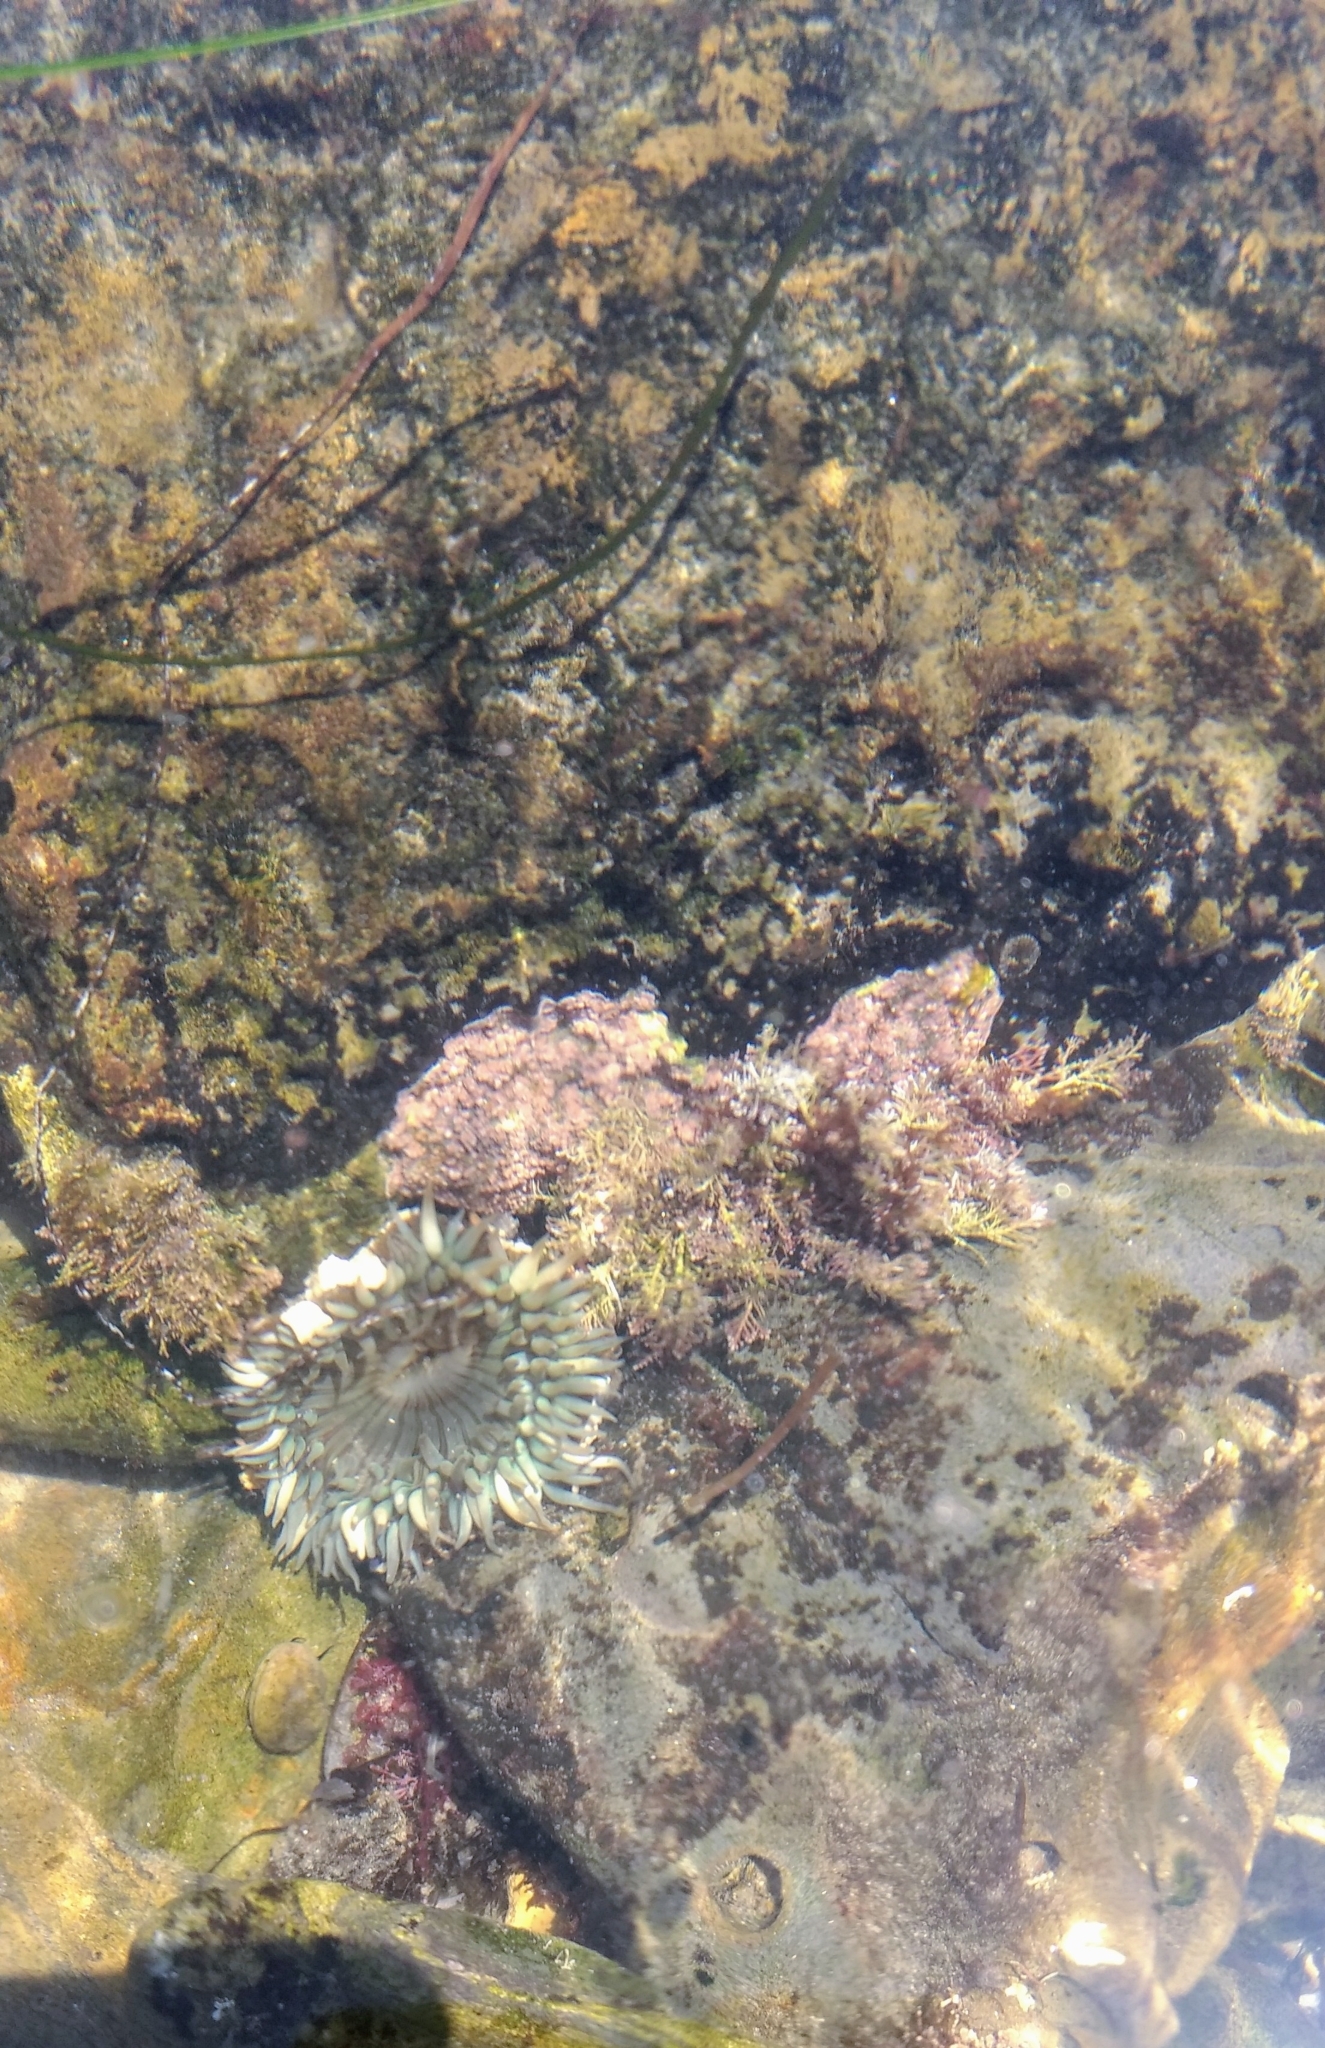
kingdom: Animalia
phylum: Cnidaria
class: Anthozoa
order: Actiniaria
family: Actiniidae
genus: Anthopleura
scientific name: Anthopleura sola
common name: Sun anemone
